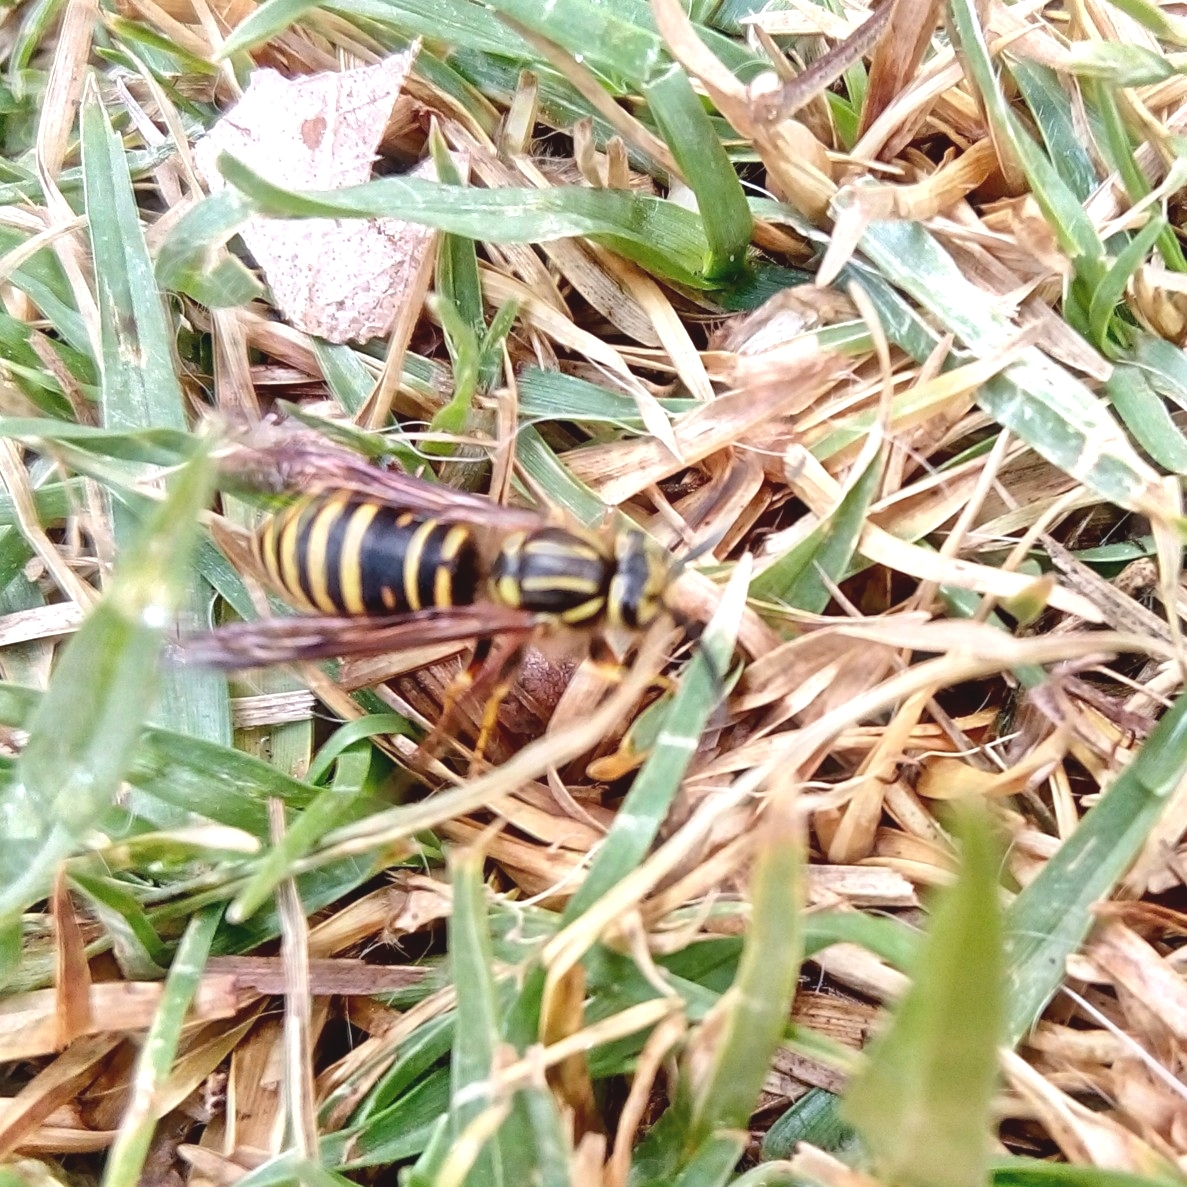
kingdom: Animalia
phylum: Arthropoda
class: Insecta
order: Hymenoptera
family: Vespidae
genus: Vespula
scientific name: Vespula squamosa
